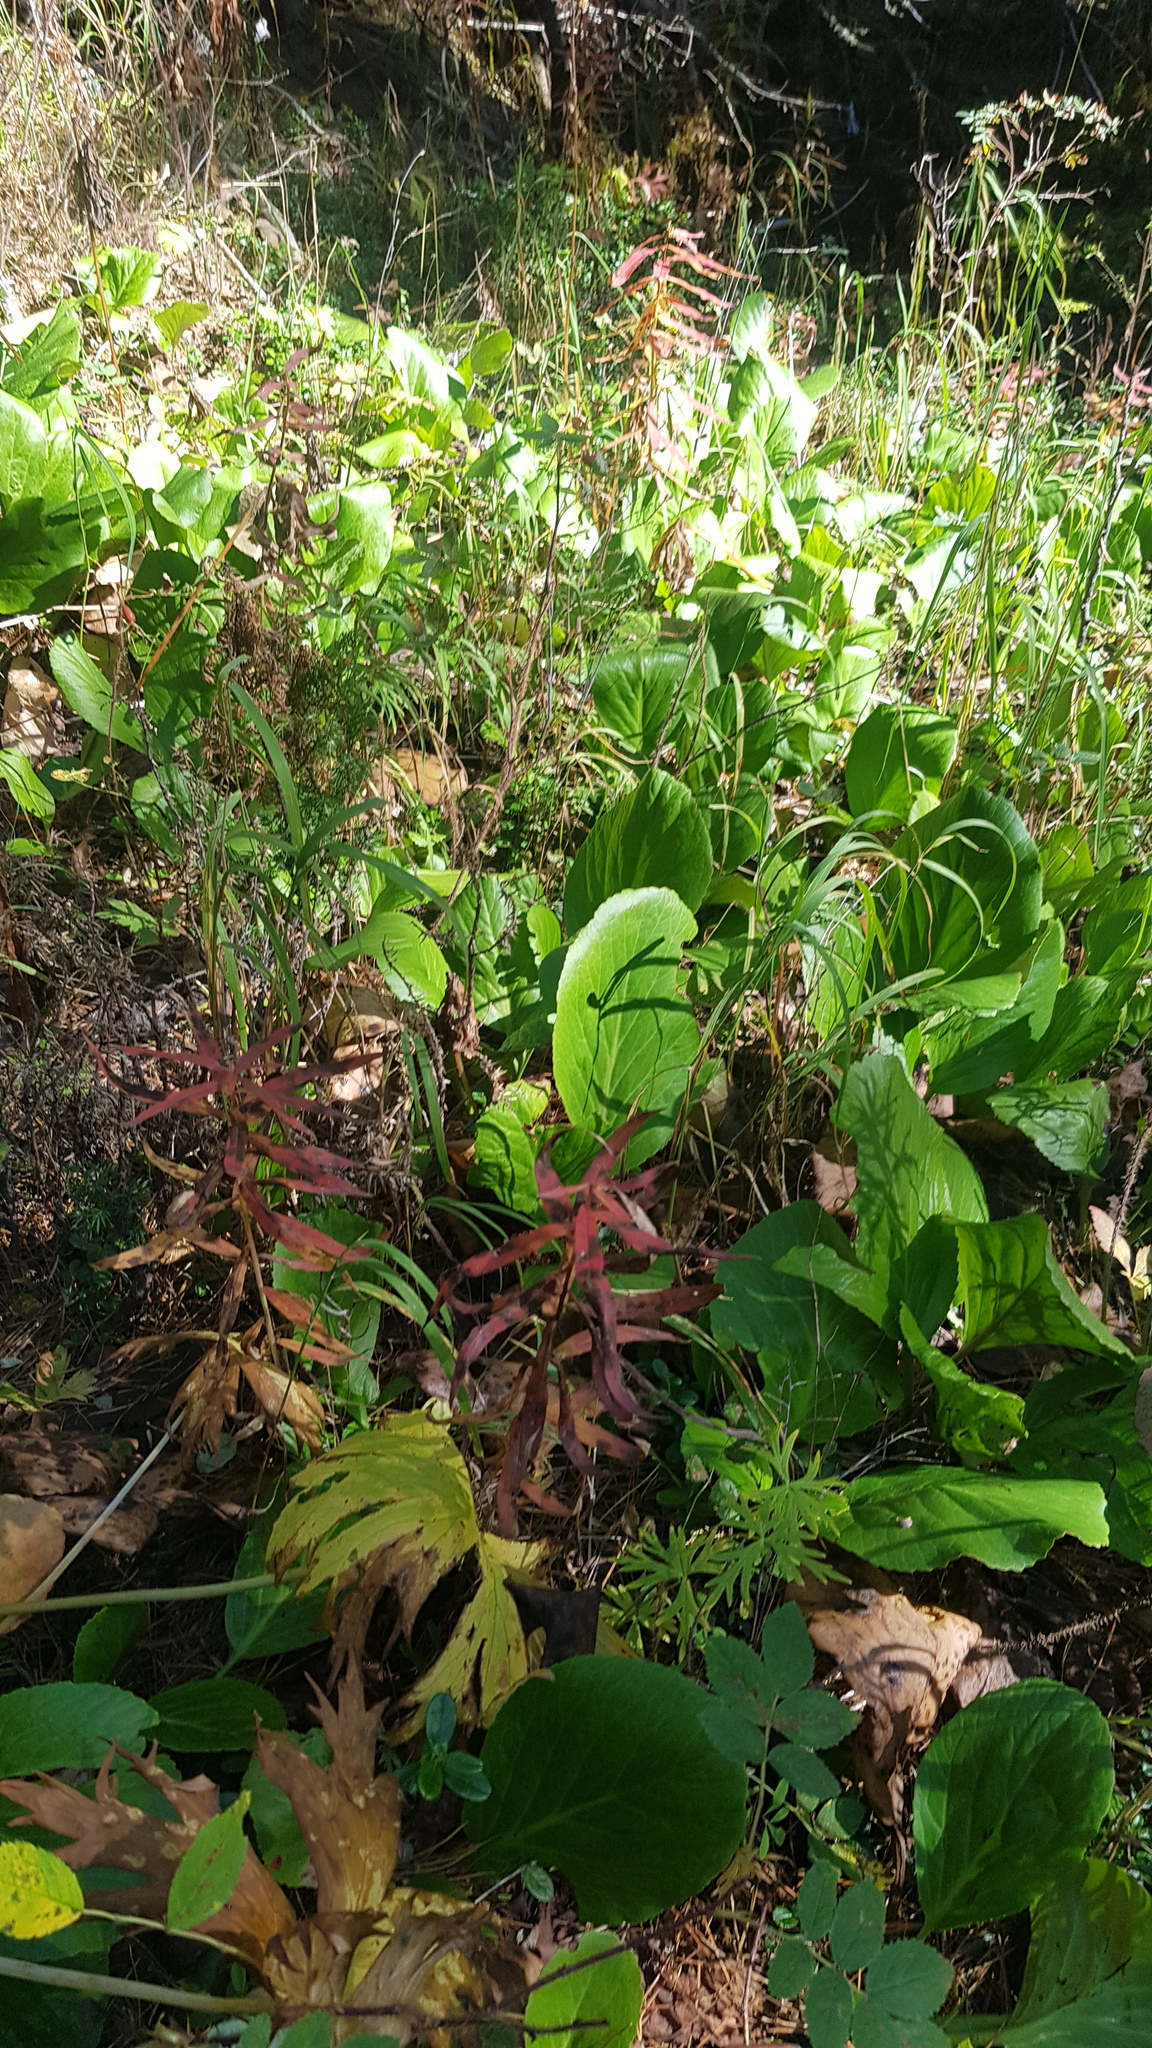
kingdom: Plantae
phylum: Tracheophyta
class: Magnoliopsida
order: Saxifragales
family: Saxifragaceae
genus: Bergenia
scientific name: Bergenia crassifolia
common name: Elephant-ears
